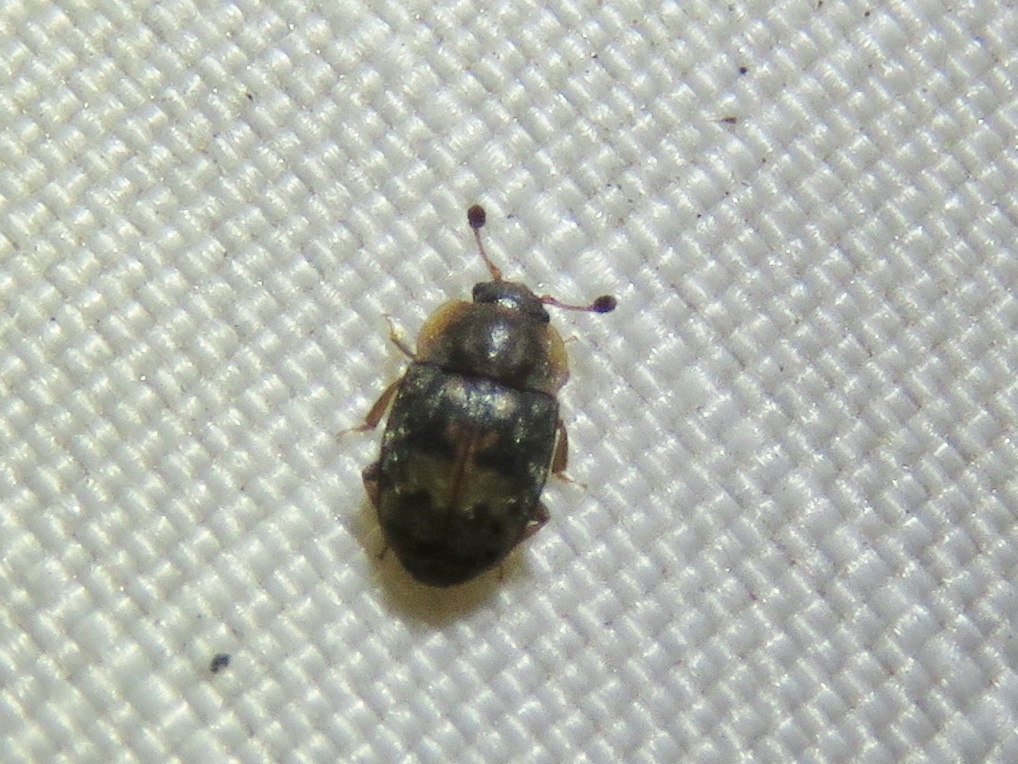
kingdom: Animalia
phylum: Arthropoda
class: Insecta
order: Coleoptera
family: Nitidulidae
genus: Omosita
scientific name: Omosita nearctica
